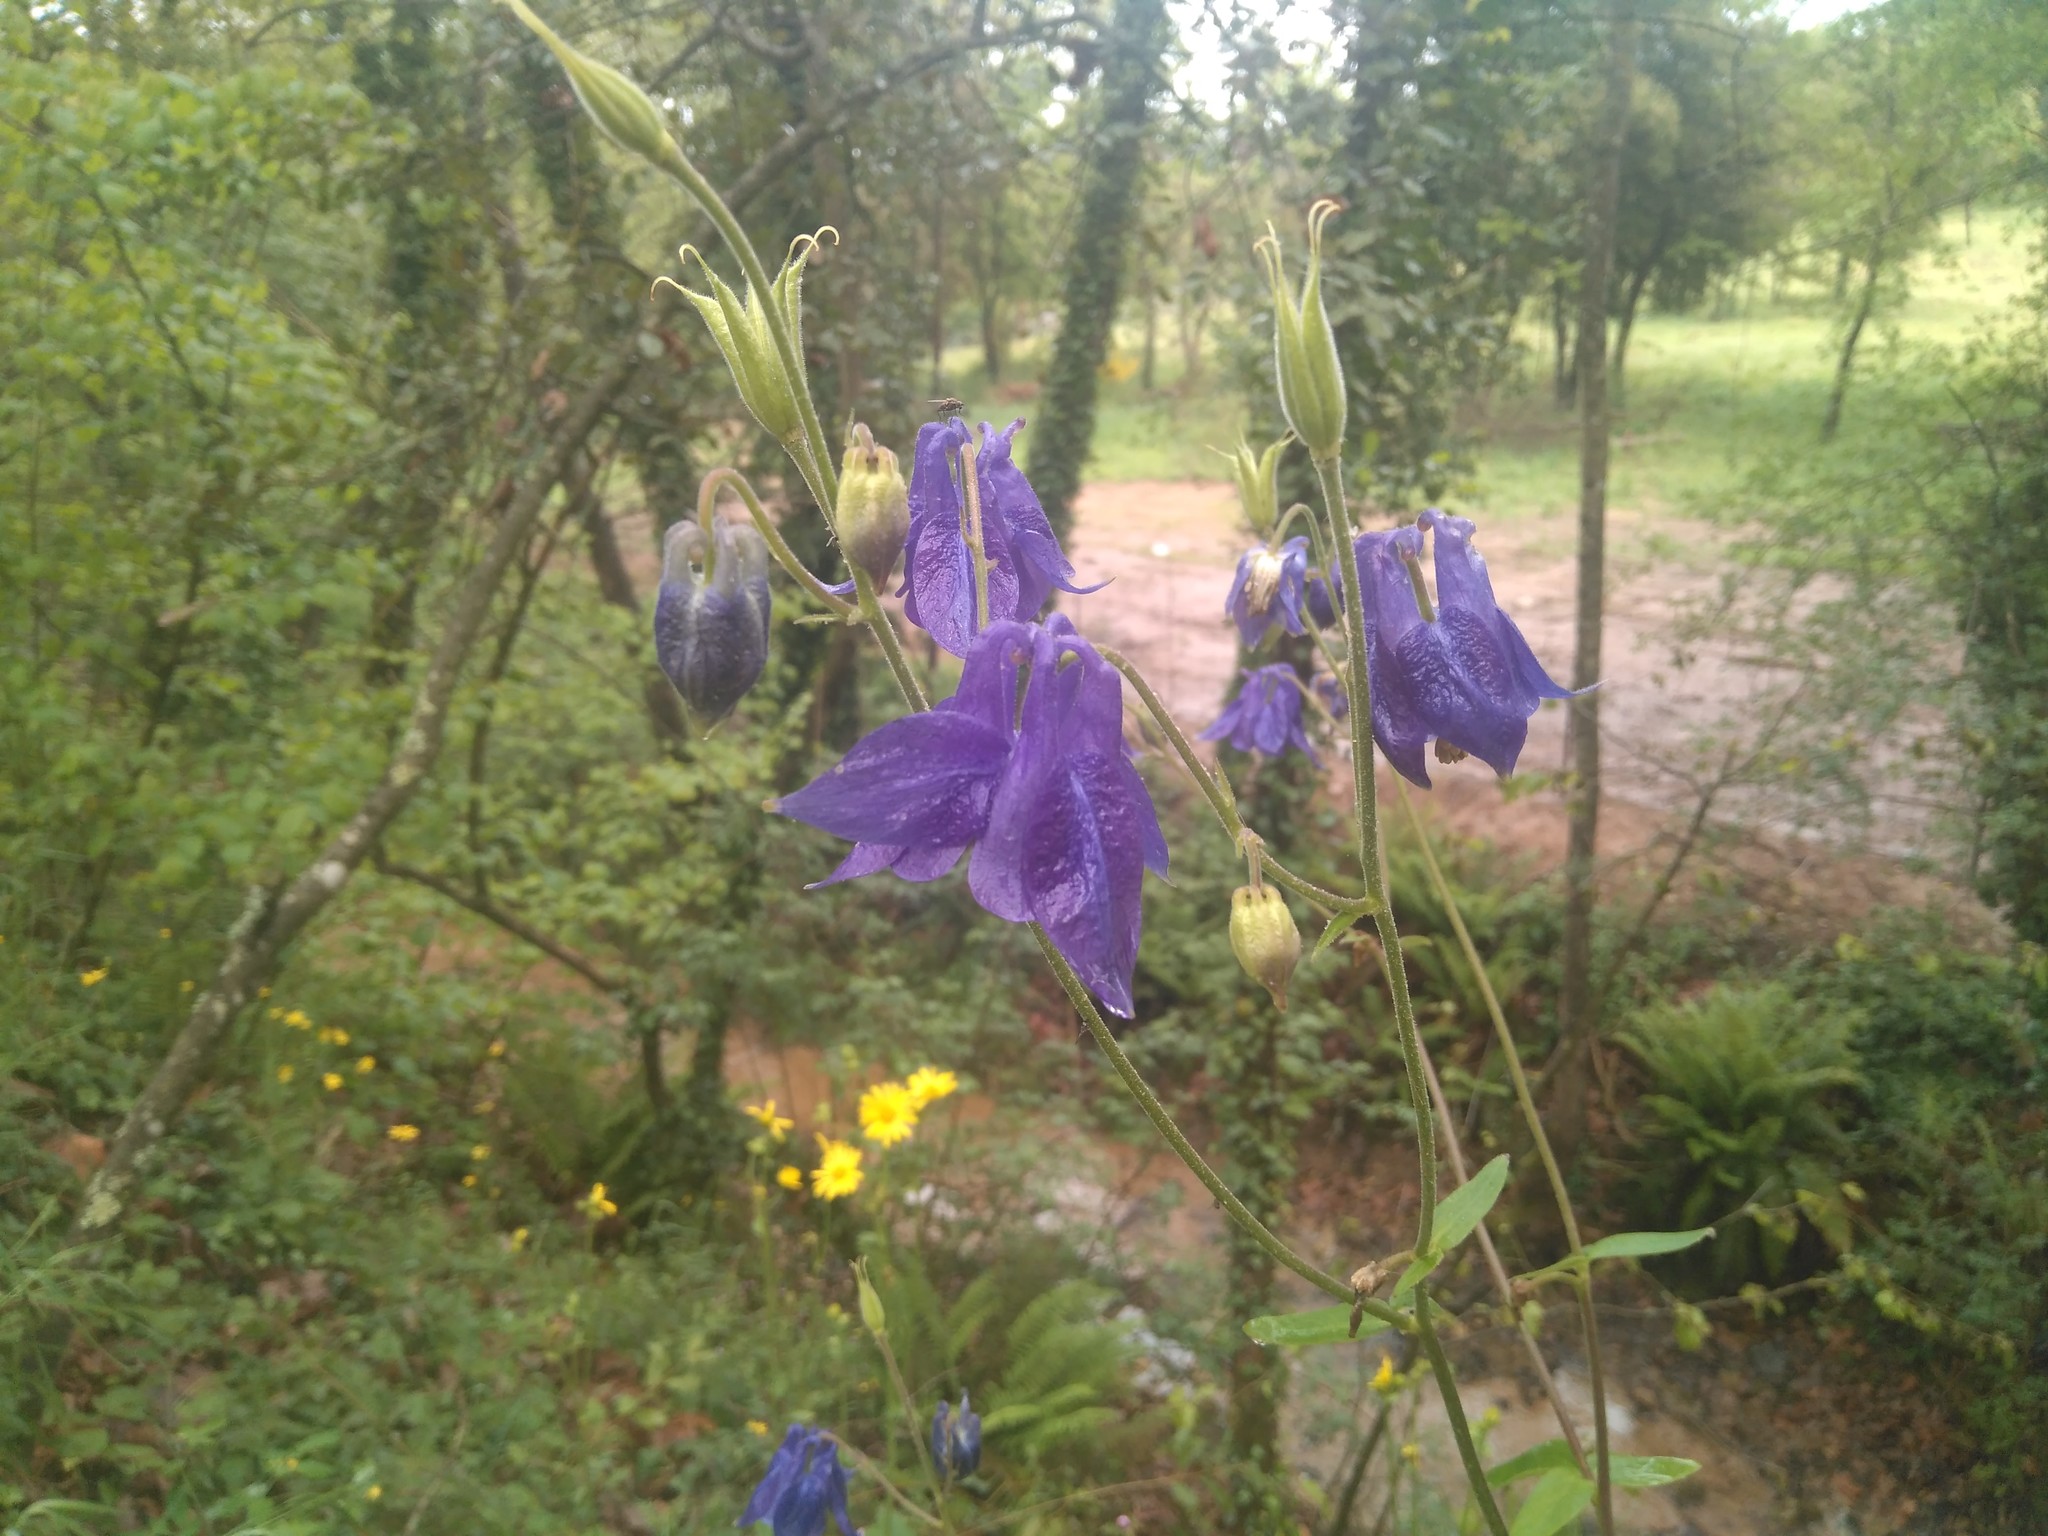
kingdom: Plantae
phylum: Tracheophyta
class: Magnoliopsida
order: Ranunculales
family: Ranunculaceae
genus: Aquilegia
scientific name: Aquilegia vulgaris
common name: Columbine
